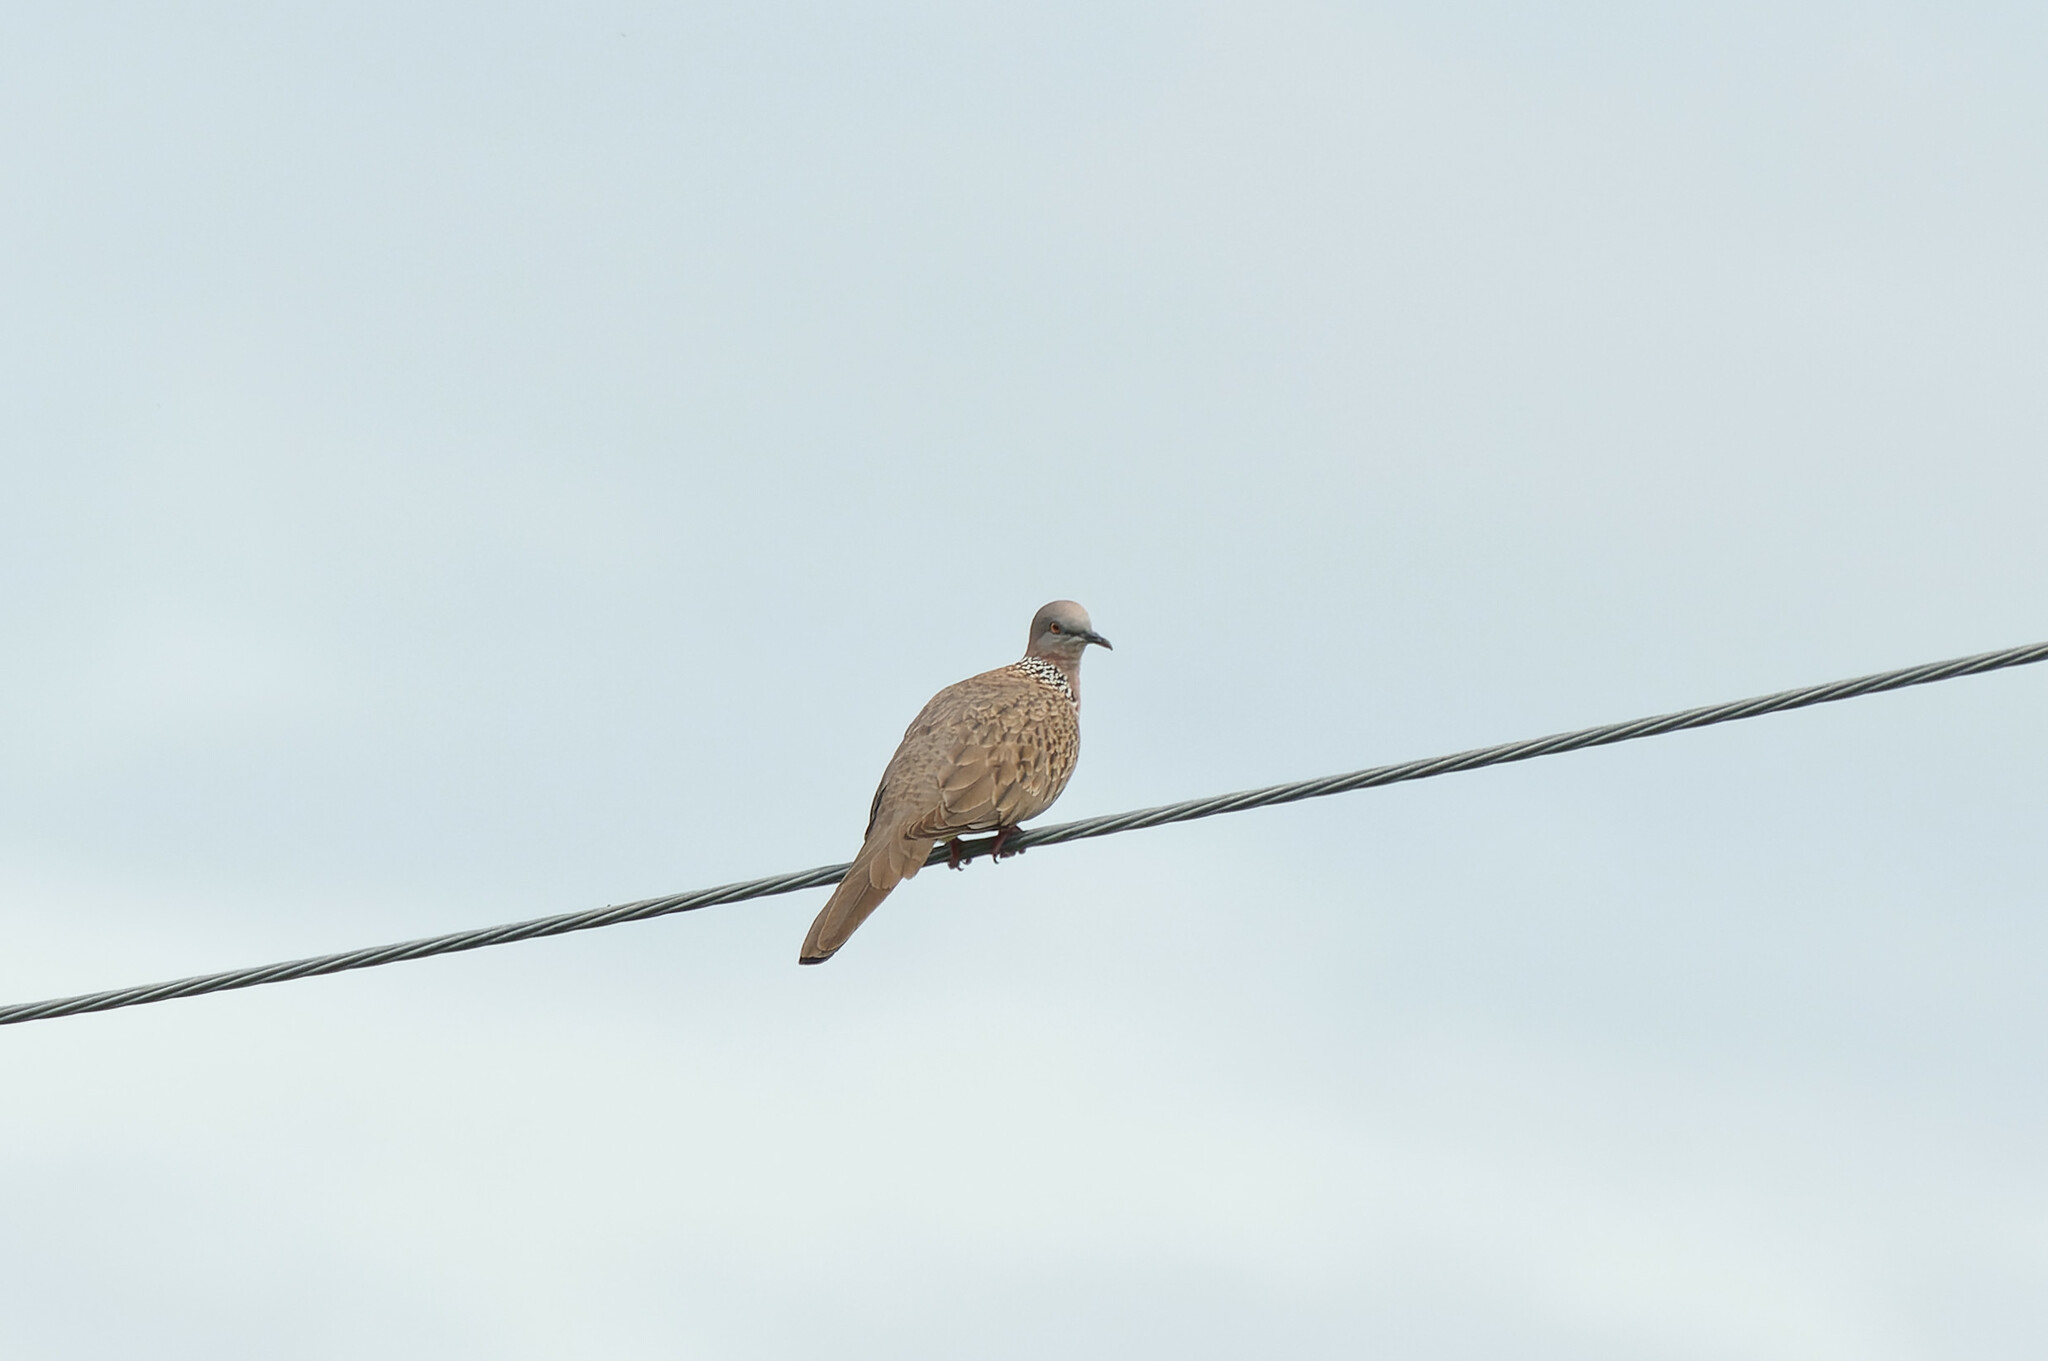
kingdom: Animalia
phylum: Chordata
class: Aves
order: Columbiformes
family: Columbidae
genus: Spilopelia
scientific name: Spilopelia chinensis
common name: Spotted dove
